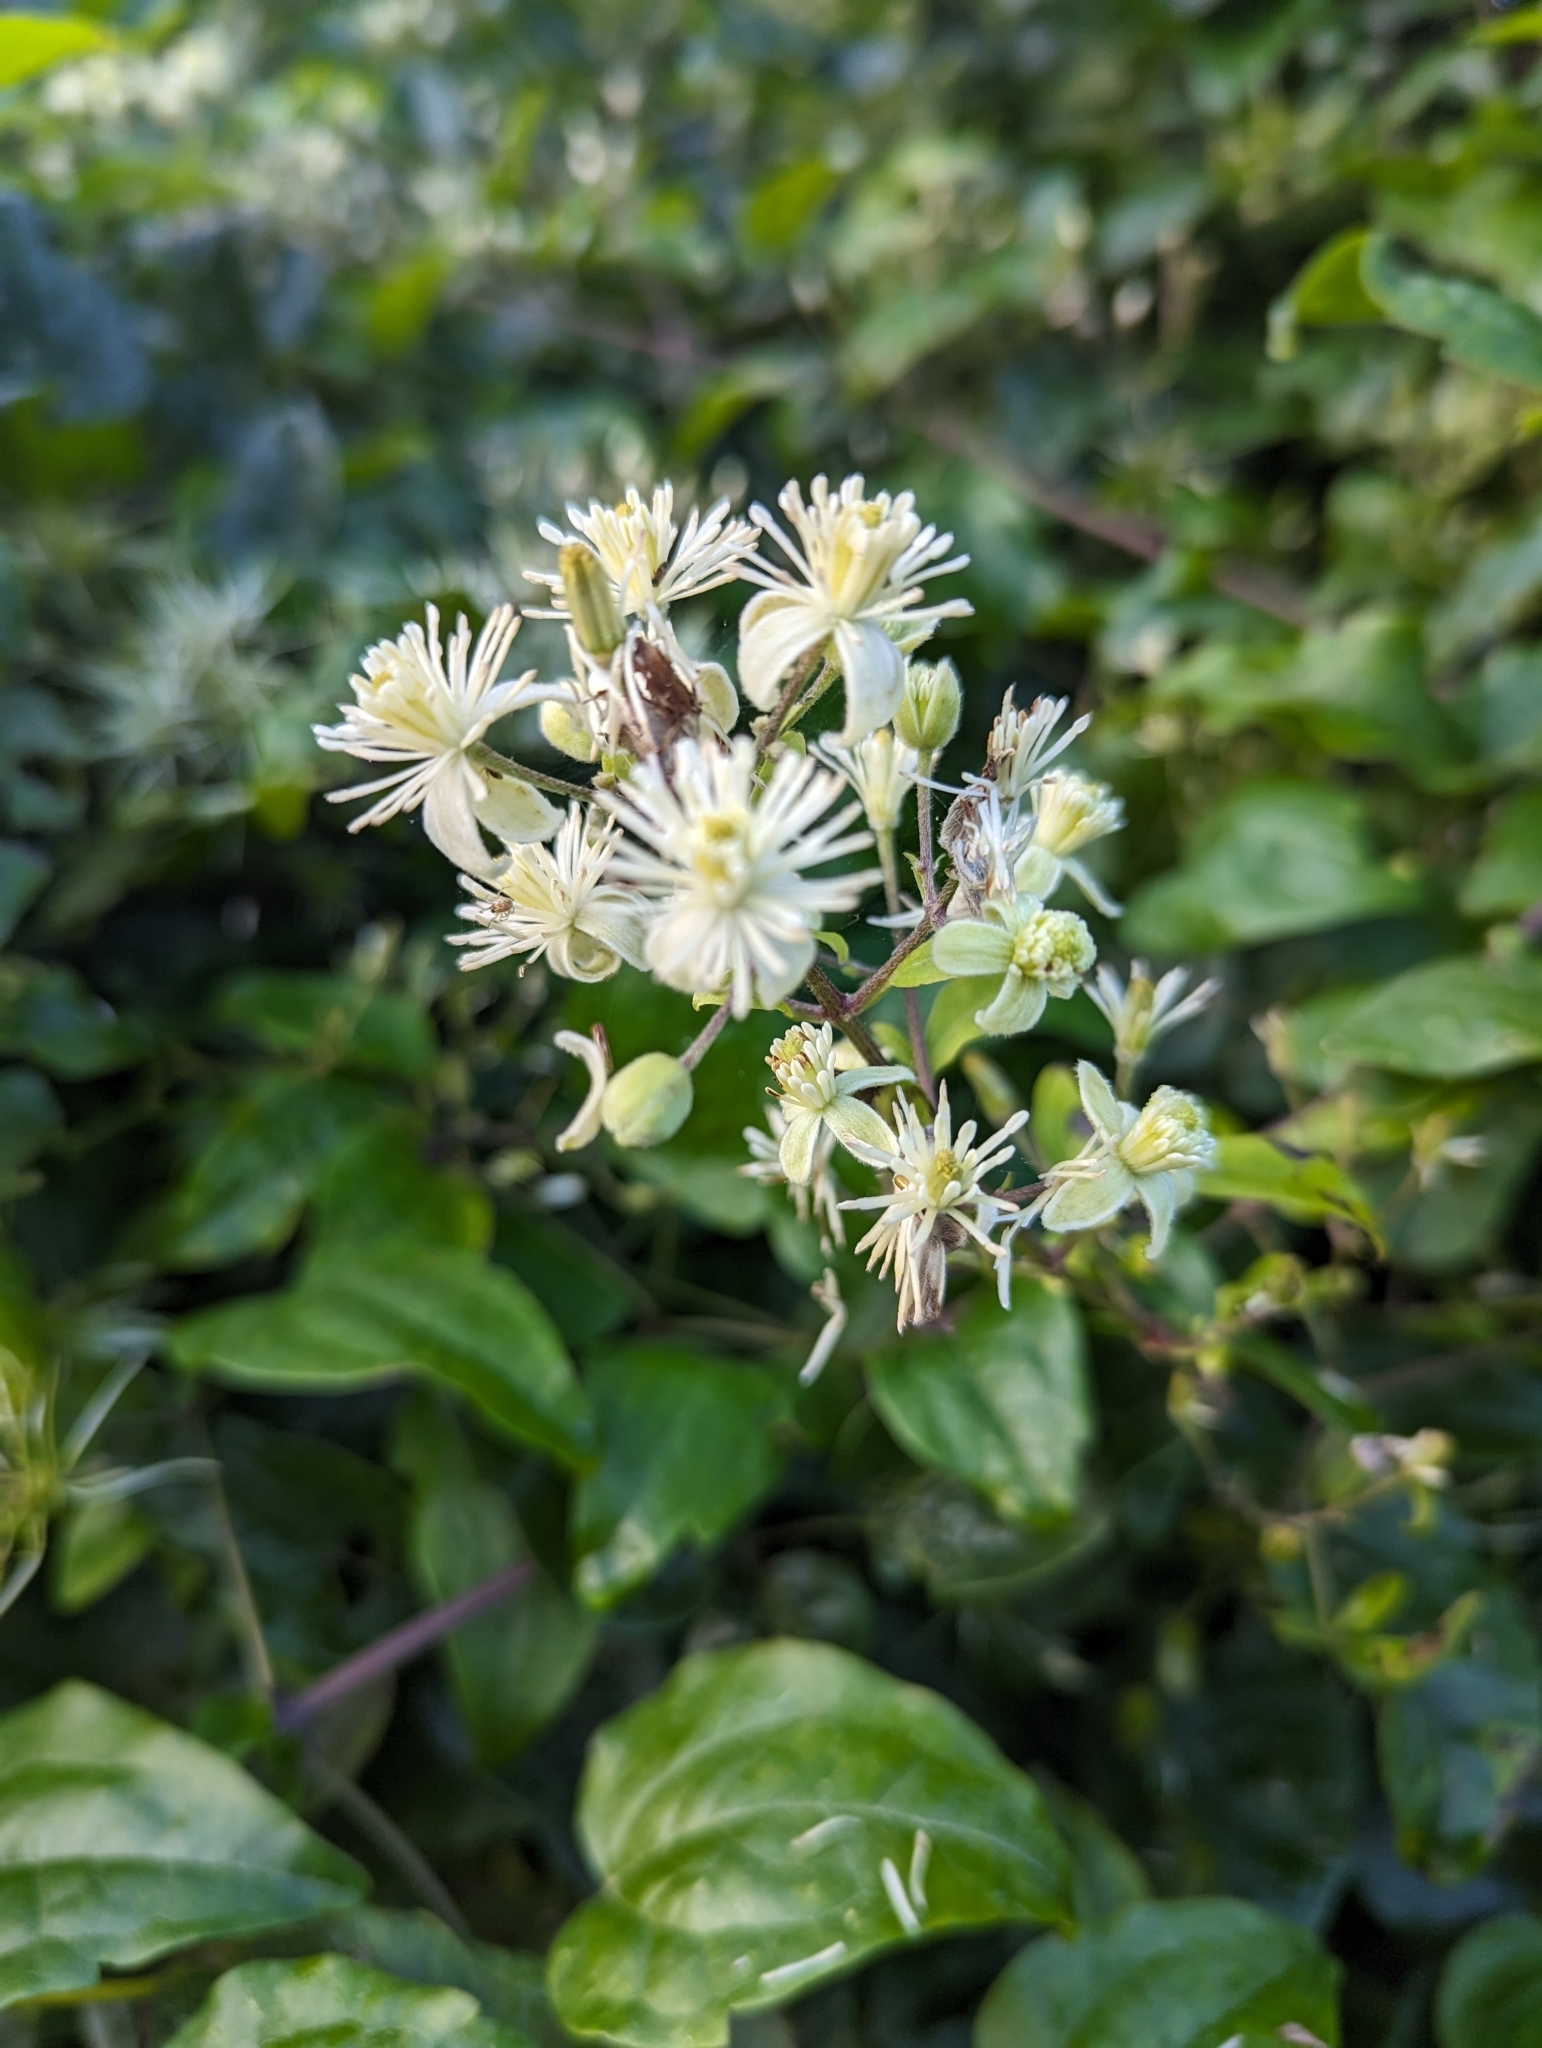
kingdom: Plantae
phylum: Tracheophyta
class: Magnoliopsida
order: Ranunculales
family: Ranunculaceae
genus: Clematis
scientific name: Clematis vitalba
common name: Evergreen clematis
